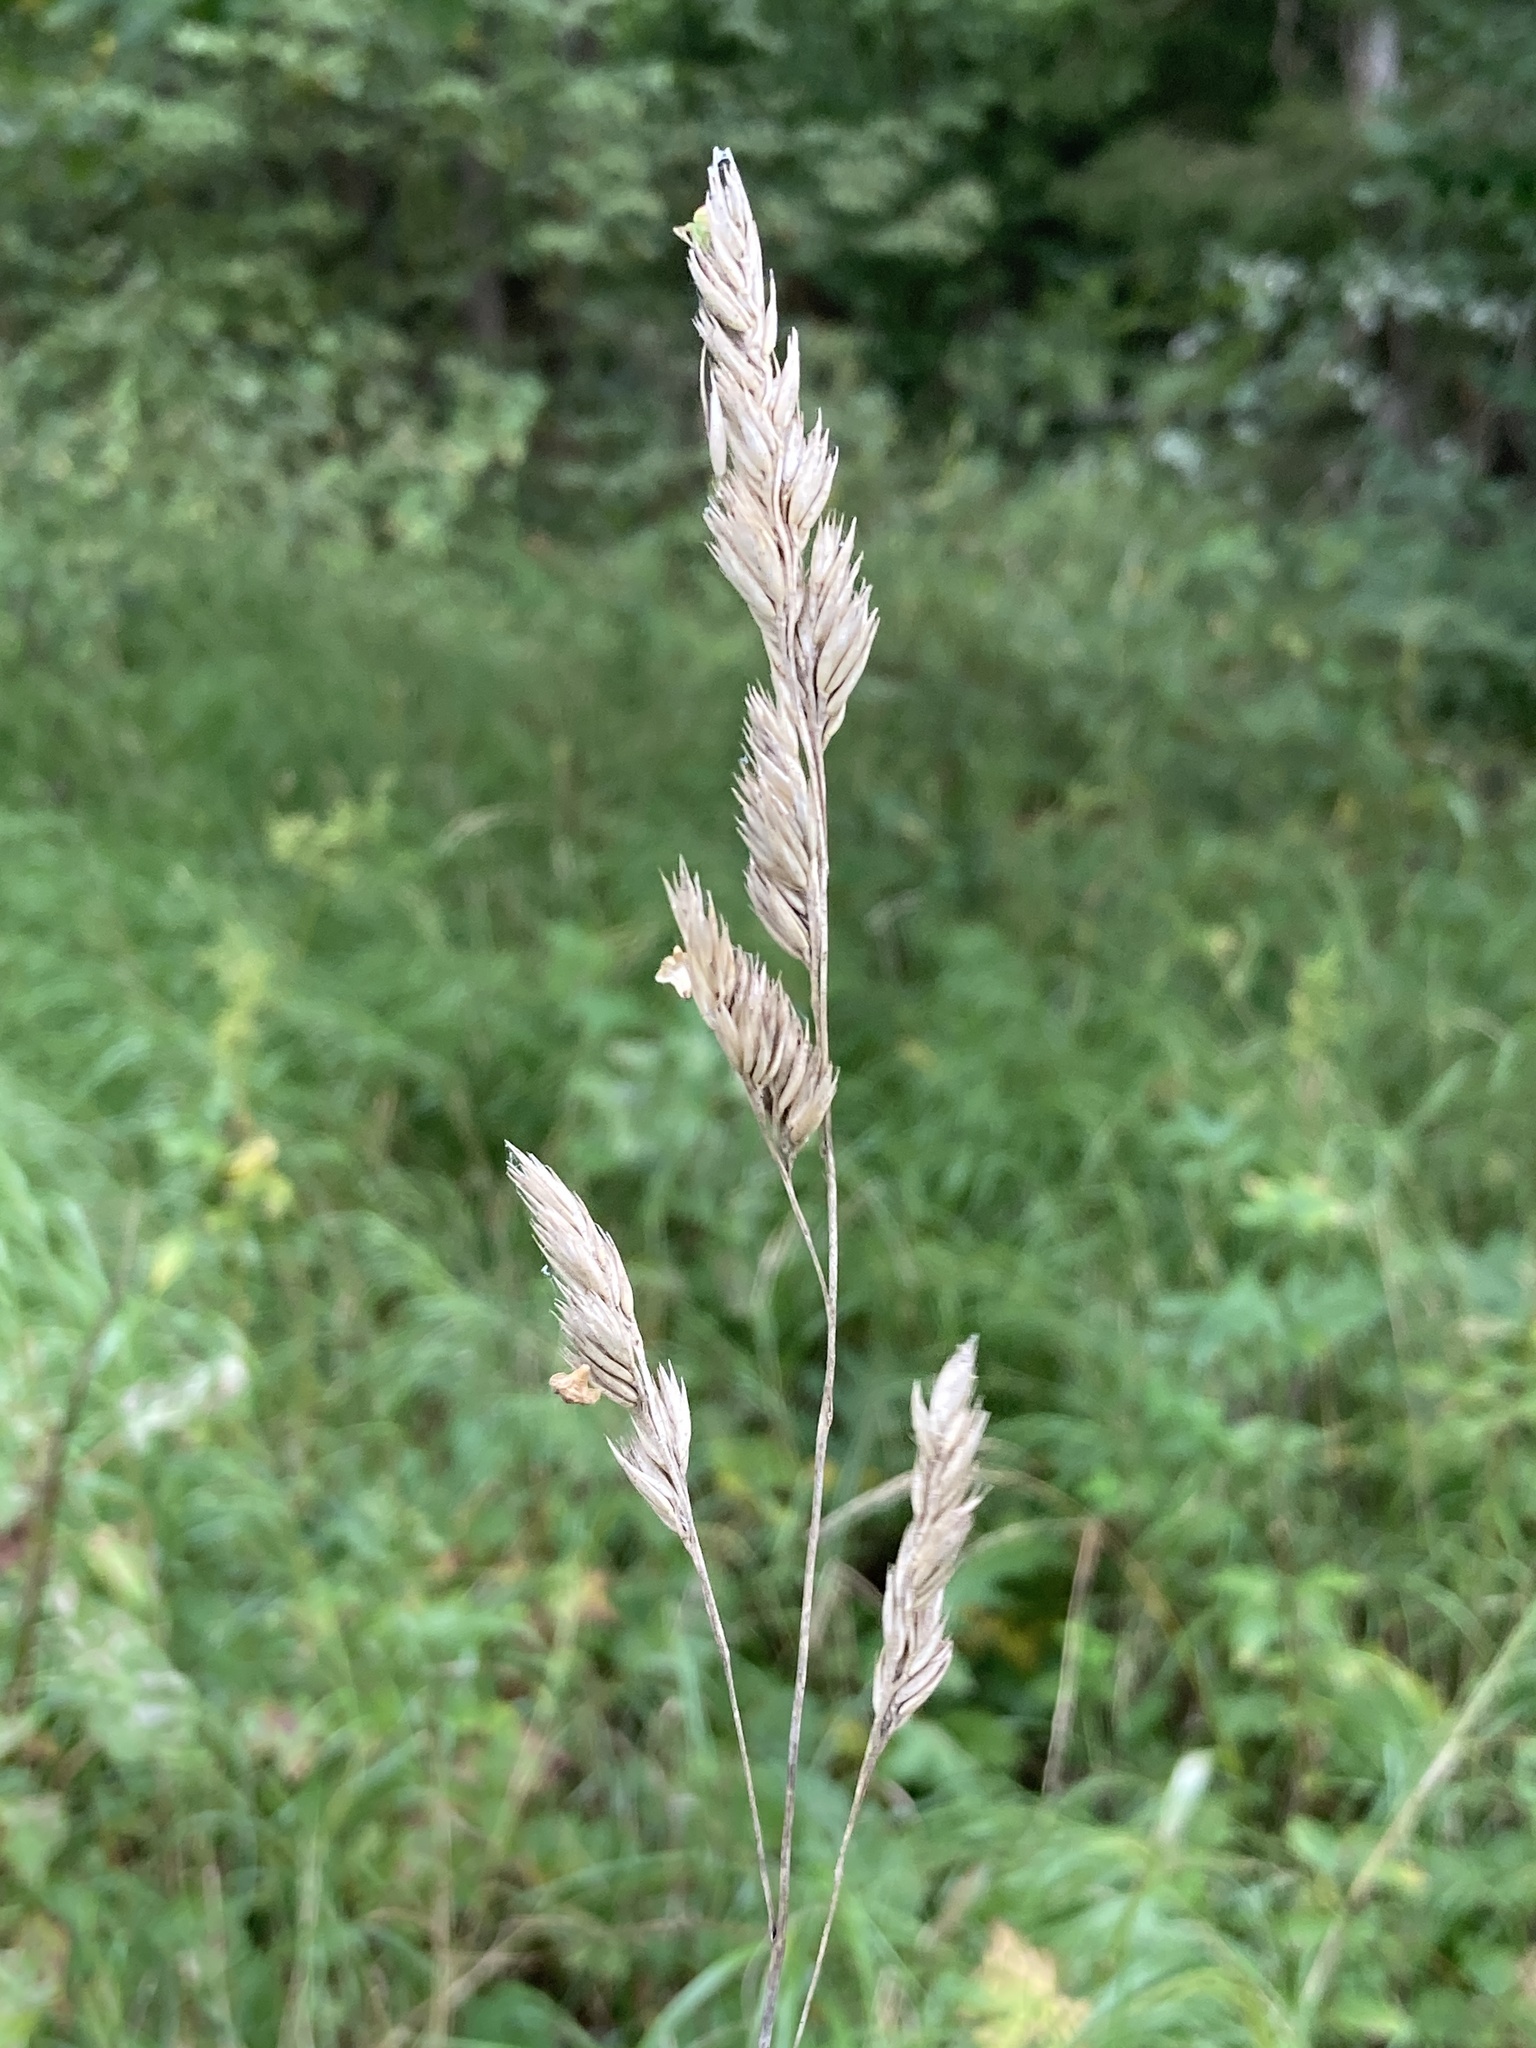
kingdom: Plantae
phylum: Tracheophyta
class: Liliopsida
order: Poales
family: Poaceae
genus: Dactylis
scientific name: Dactylis glomerata
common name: Orchardgrass
